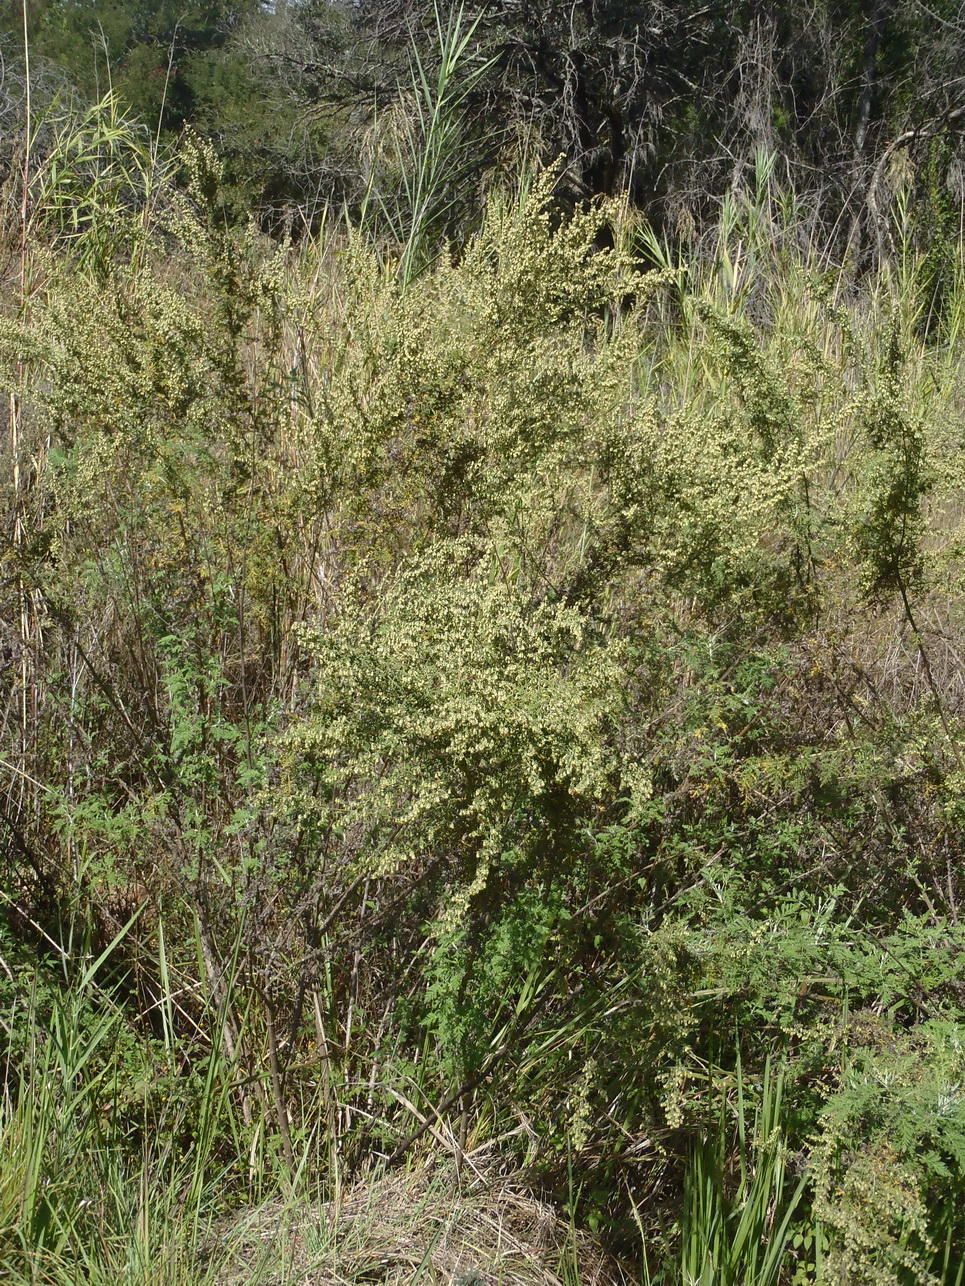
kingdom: Plantae
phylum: Tracheophyta
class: Magnoliopsida
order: Asterales
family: Asteraceae
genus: Artemisia
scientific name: Artemisia afra
